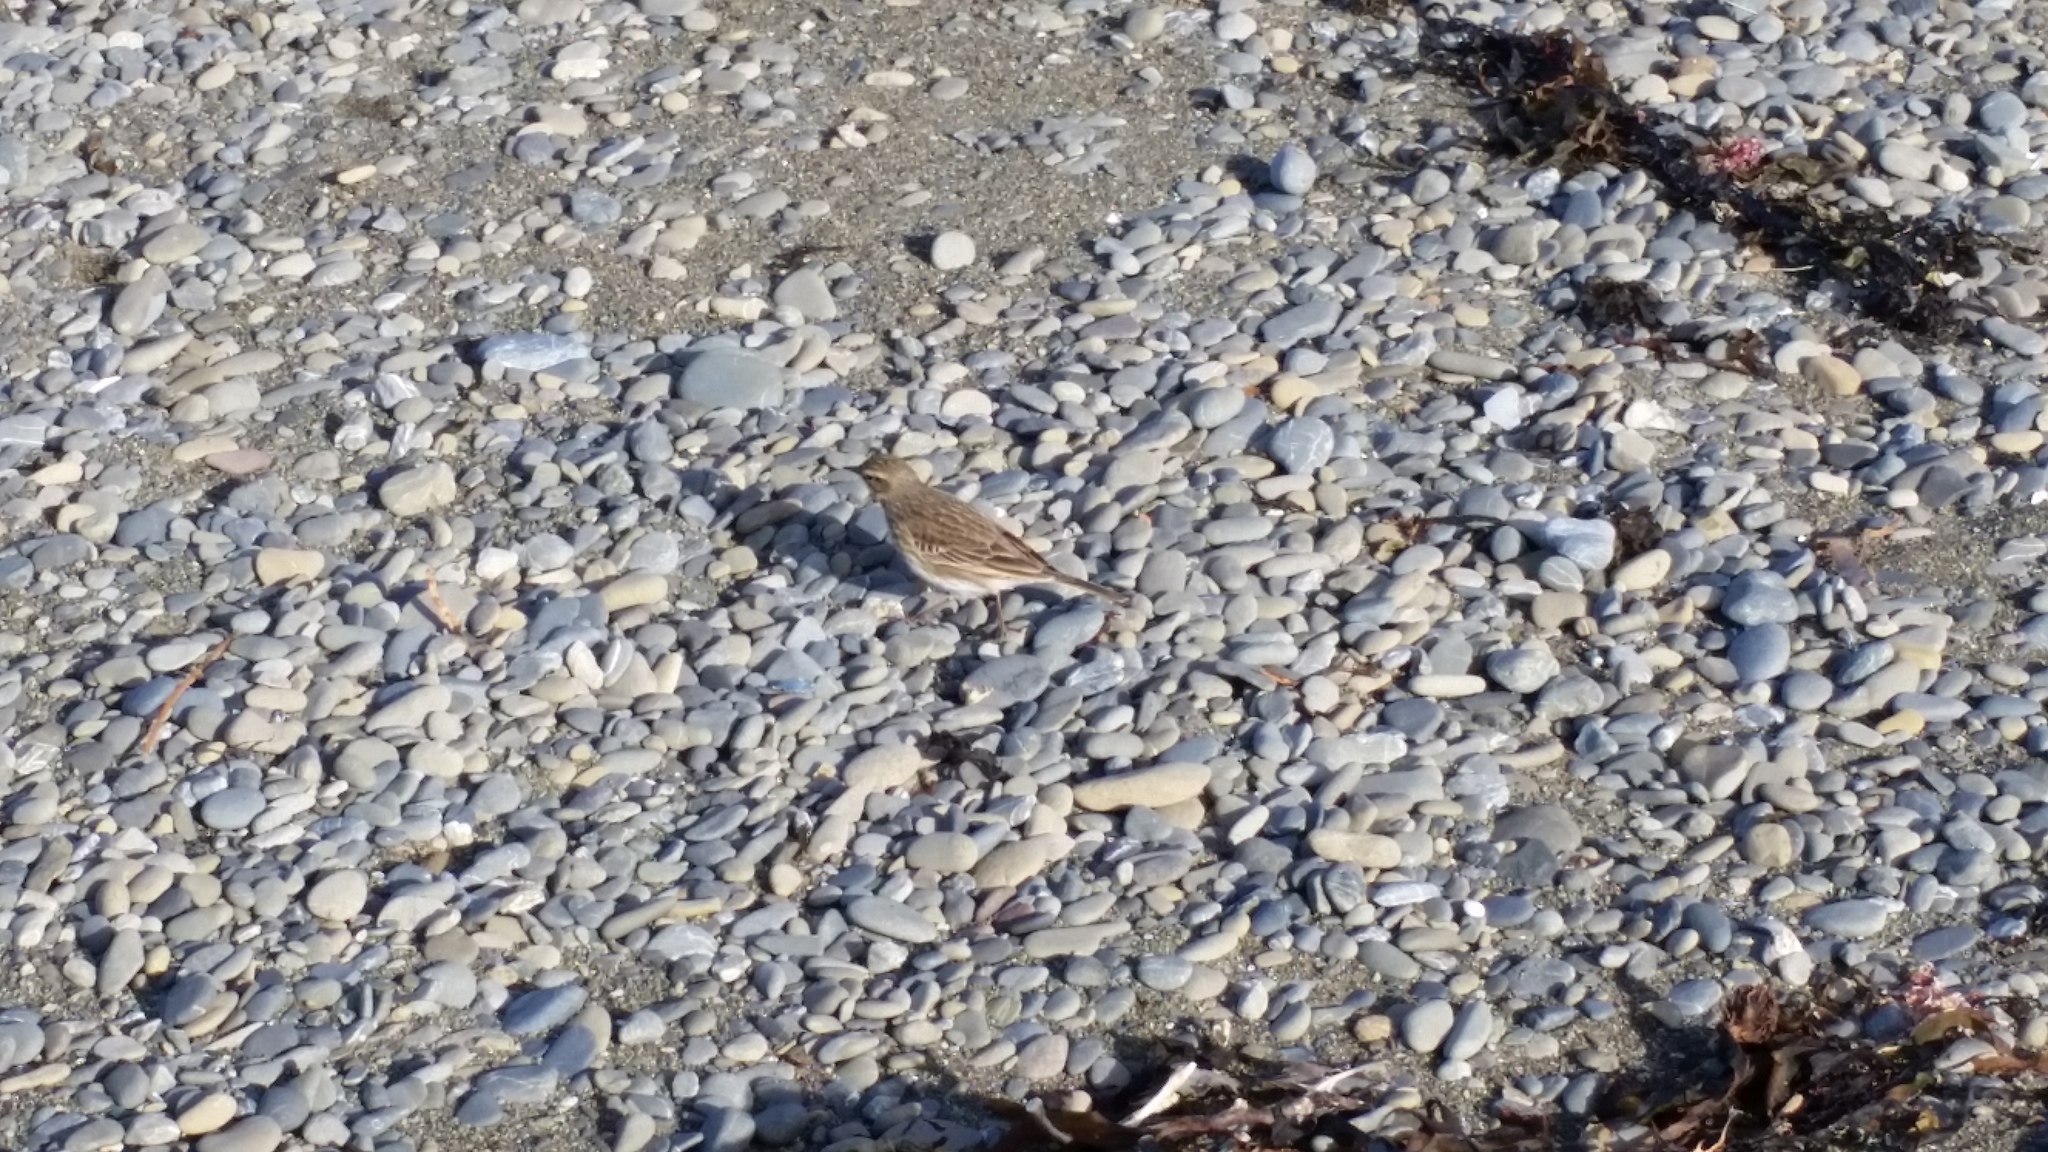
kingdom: Animalia
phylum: Chordata
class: Aves
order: Passeriformes
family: Motacillidae
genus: Anthus
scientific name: Anthus novaeseelandiae
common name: New zealand pipit
